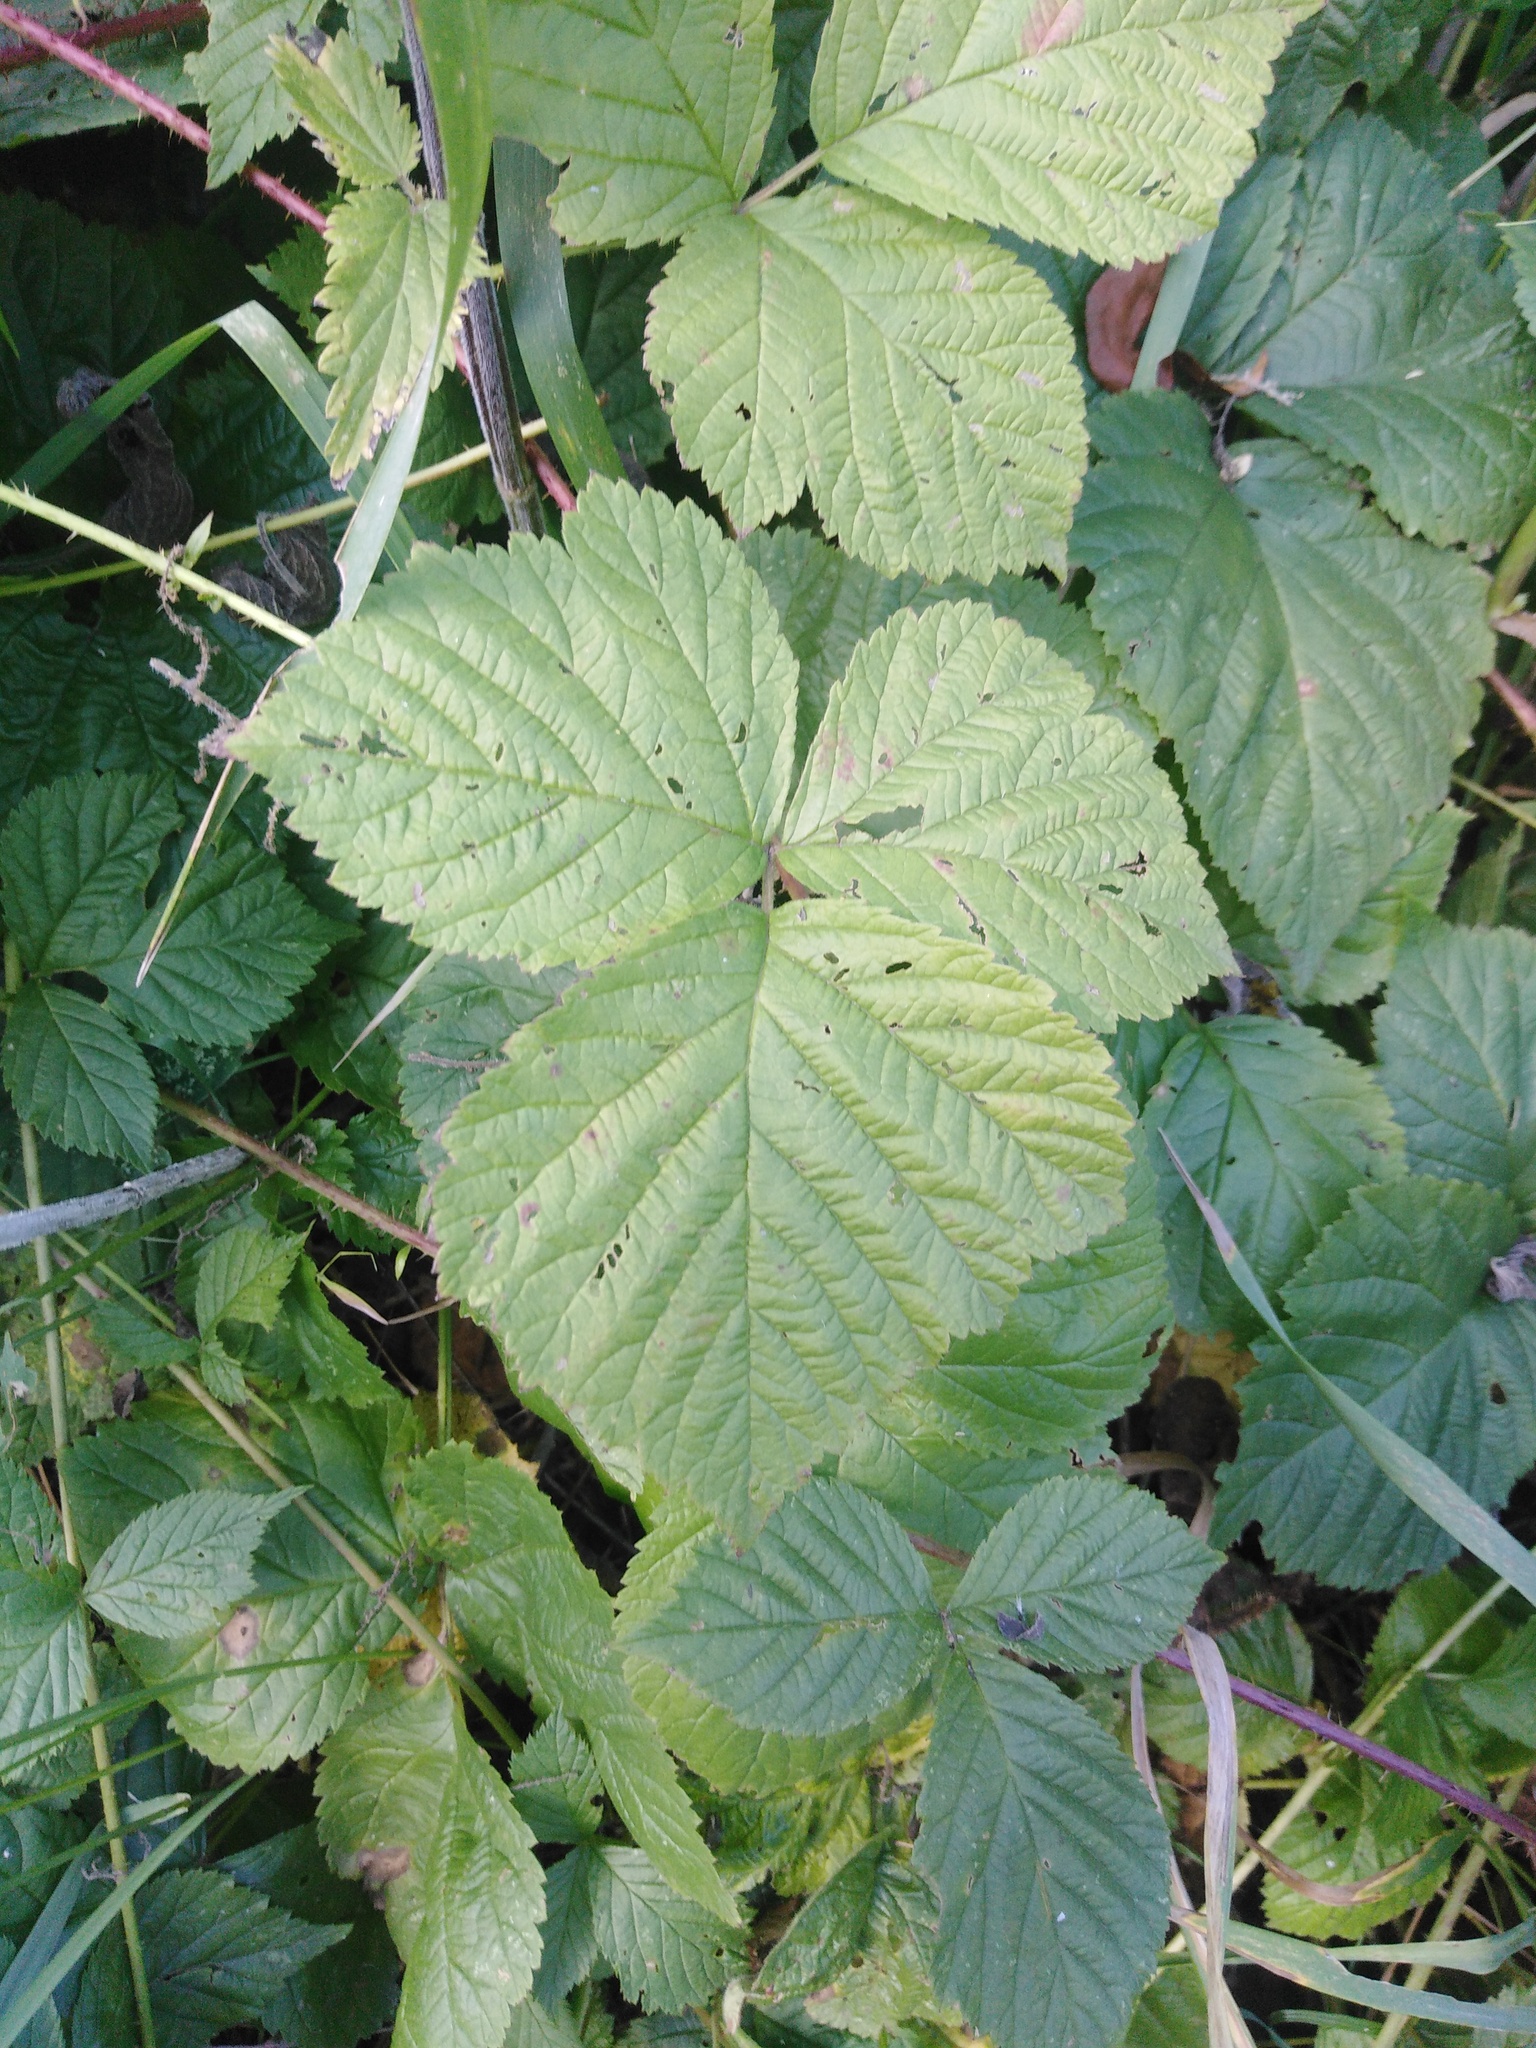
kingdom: Plantae
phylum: Tracheophyta
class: Magnoliopsida
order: Rosales
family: Rosaceae
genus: Rubus
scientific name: Rubus caesius
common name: Dewberry
